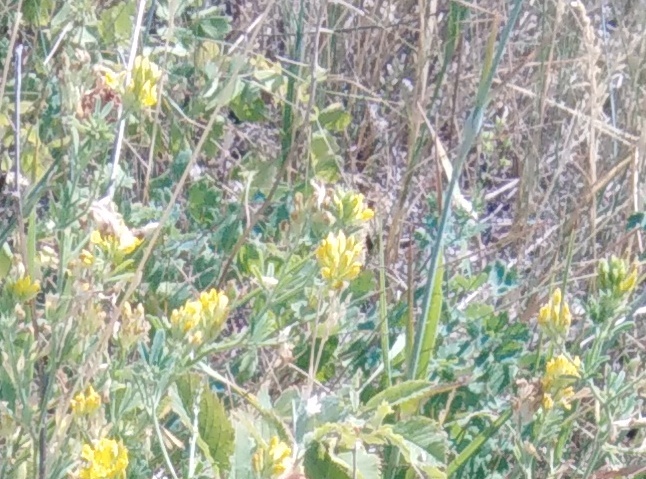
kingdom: Plantae
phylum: Tracheophyta
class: Magnoliopsida
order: Fabales
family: Fabaceae
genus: Medicago
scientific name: Medicago falcata
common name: Sickle medick
